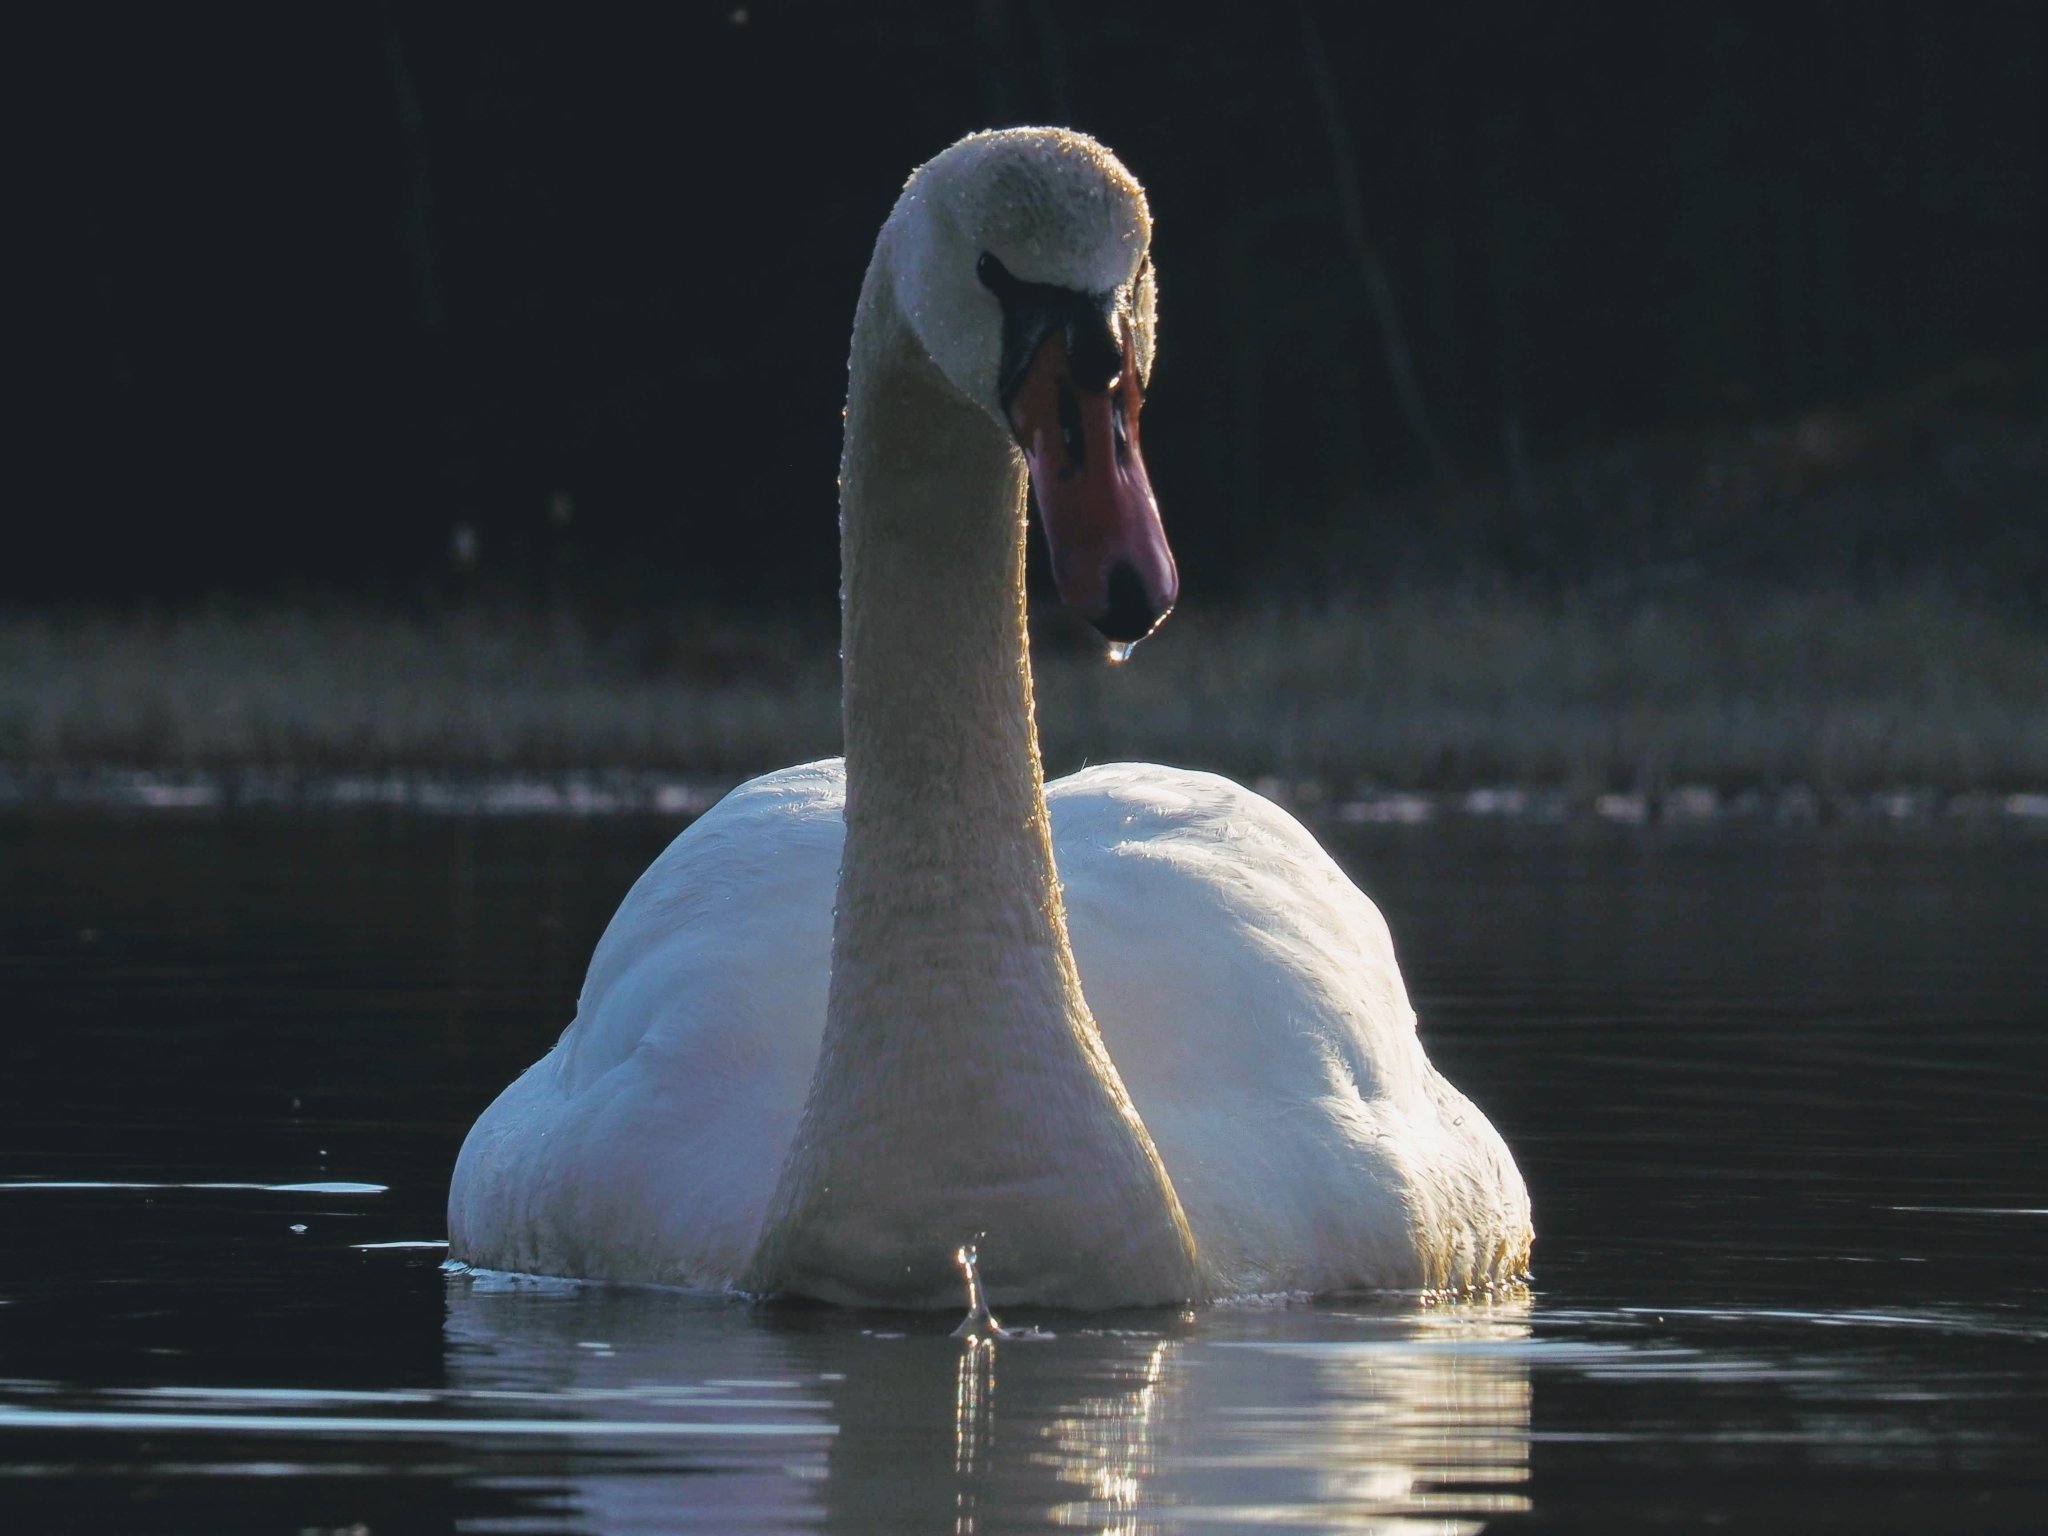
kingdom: Animalia
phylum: Chordata
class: Aves
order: Anseriformes
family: Anatidae
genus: Cygnus
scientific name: Cygnus olor
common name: Mute swan
